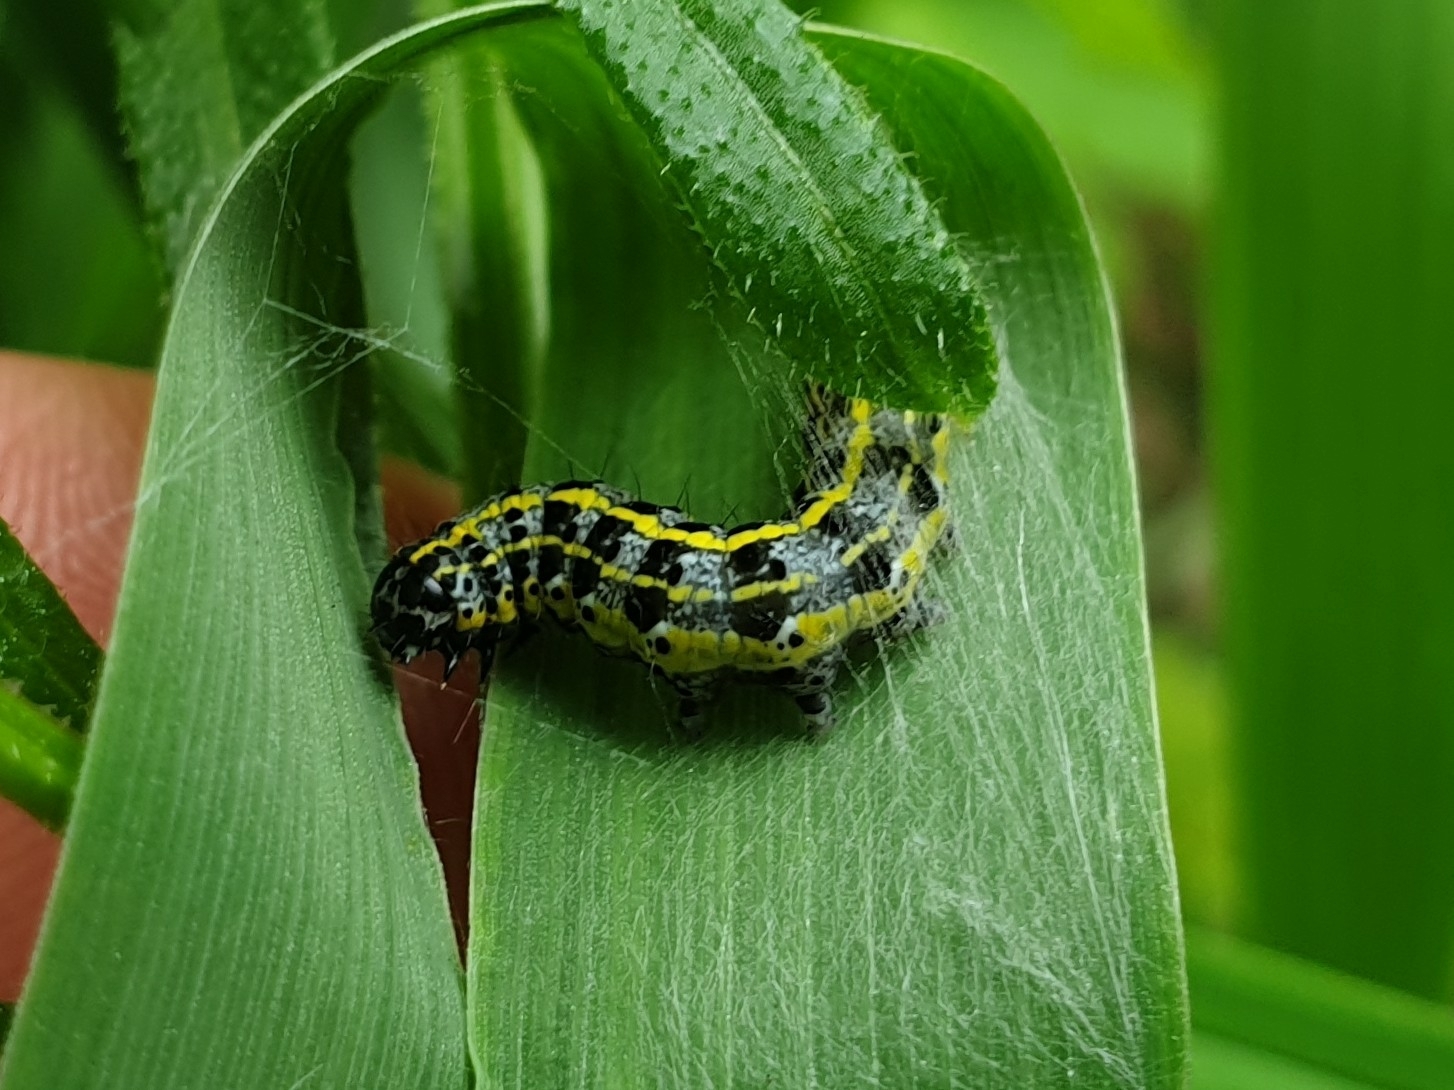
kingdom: Animalia
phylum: Arthropoda
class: Insecta
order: Lepidoptera
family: Noctuidae
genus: Orthosia
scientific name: Orthosia miniosa
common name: Blossom underwing
